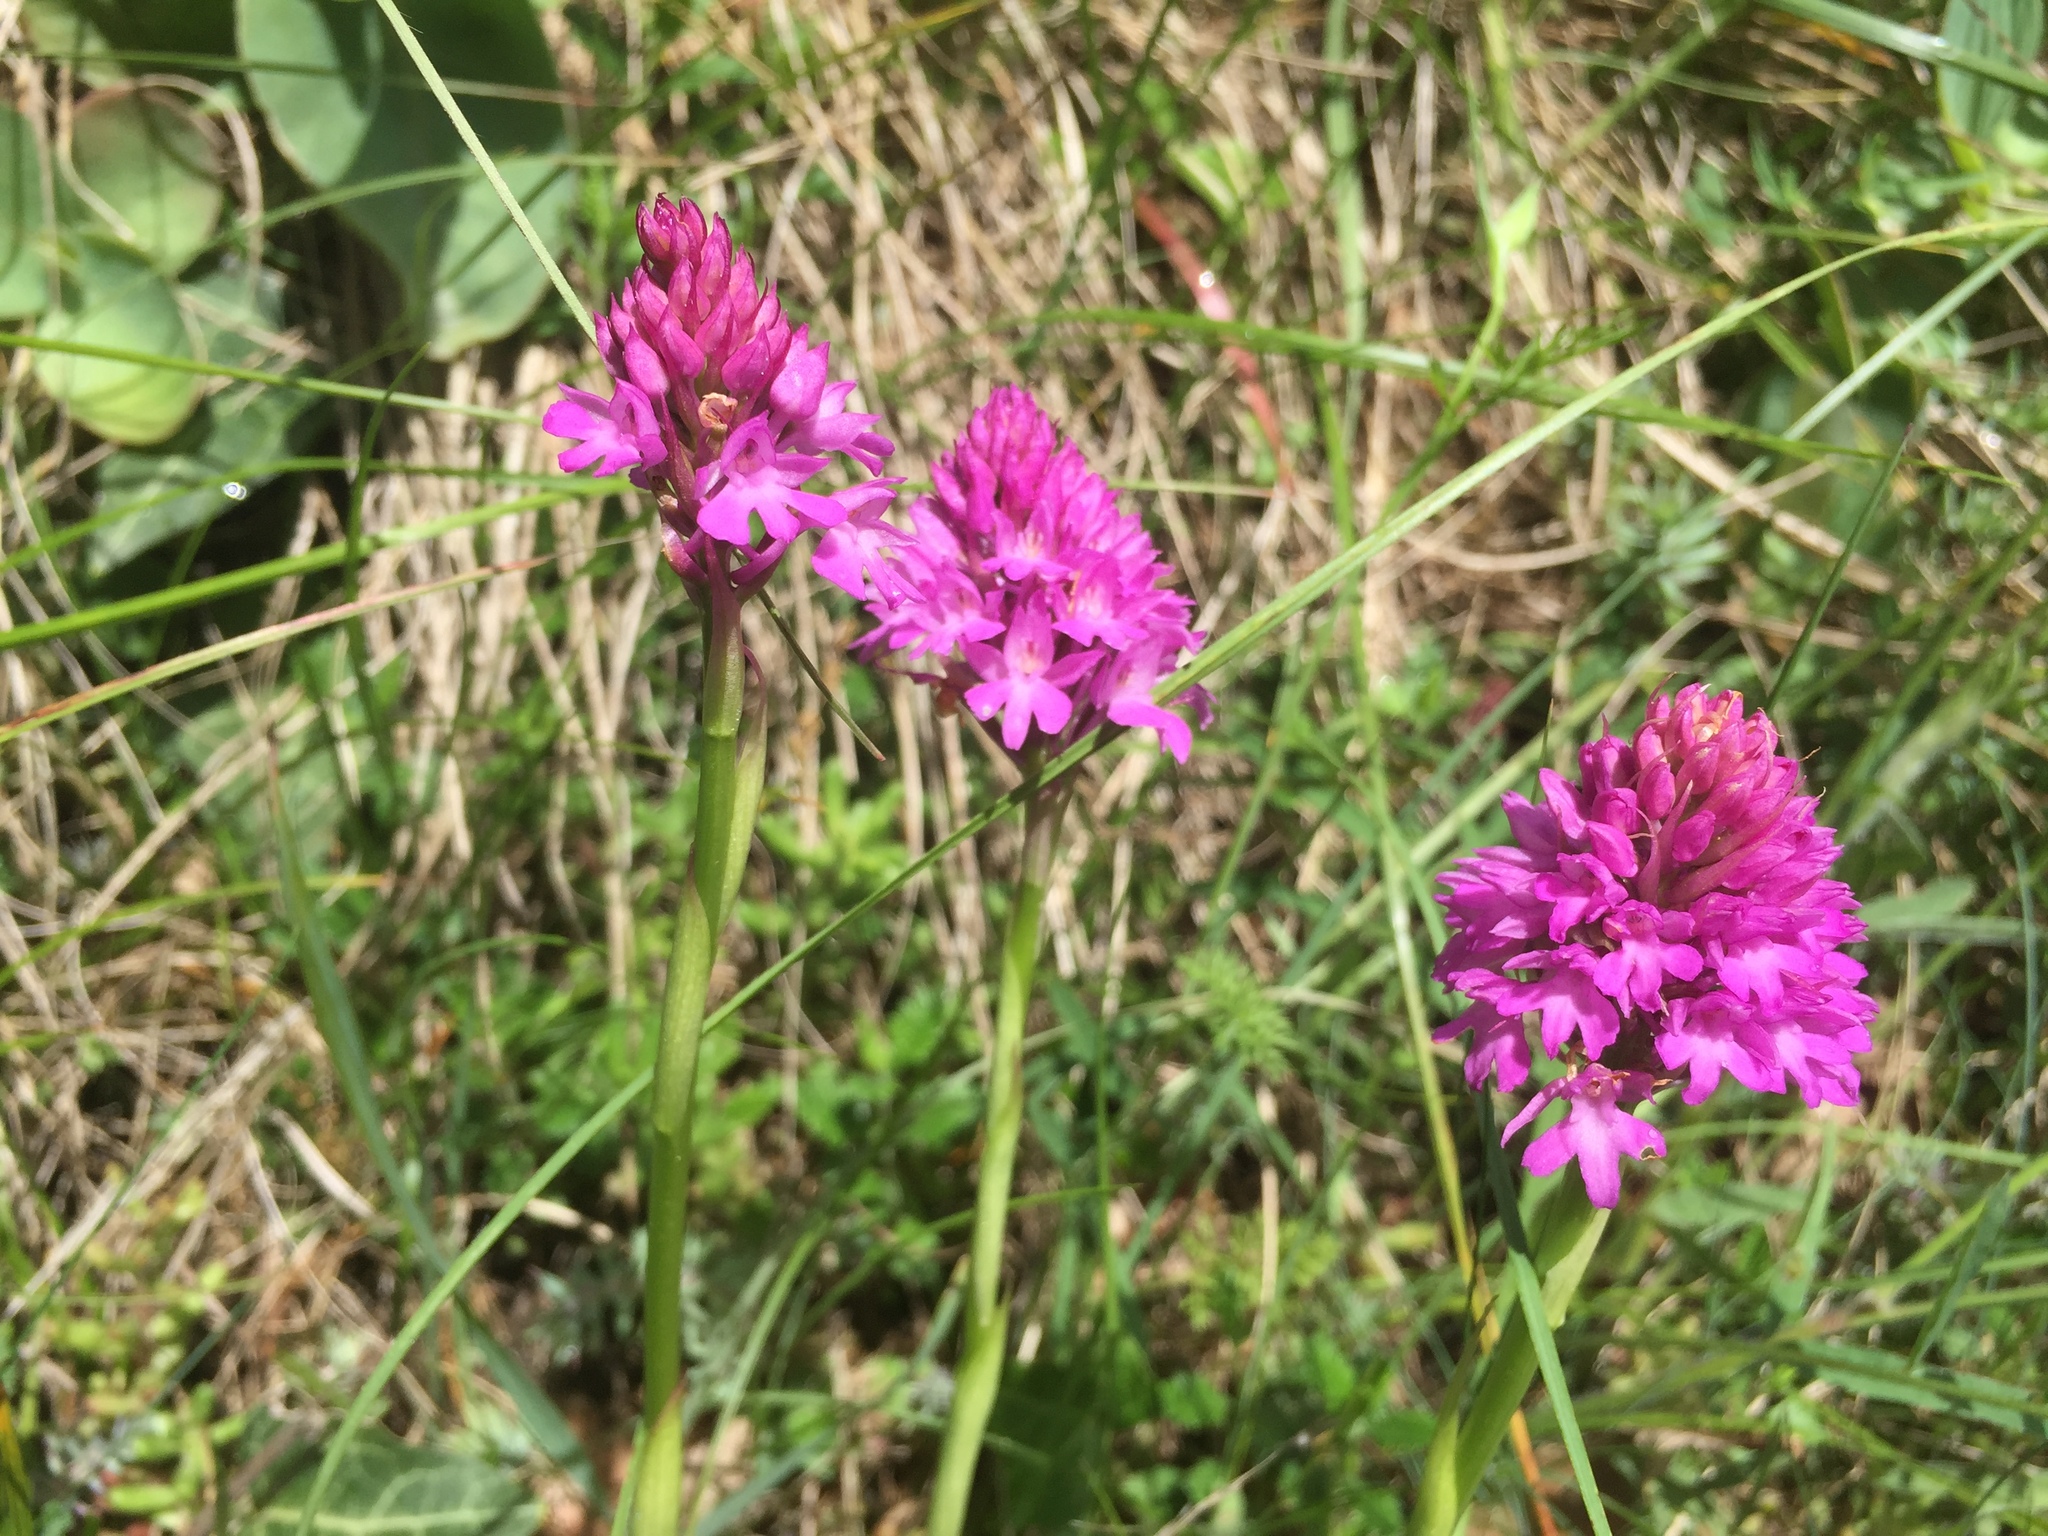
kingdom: Plantae
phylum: Tracheophyta
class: Liliopsida
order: Asparagales
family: Orchidaceae
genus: Anacamptis
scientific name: Anacamptis pyramidalis
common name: Pyramidal orchid
